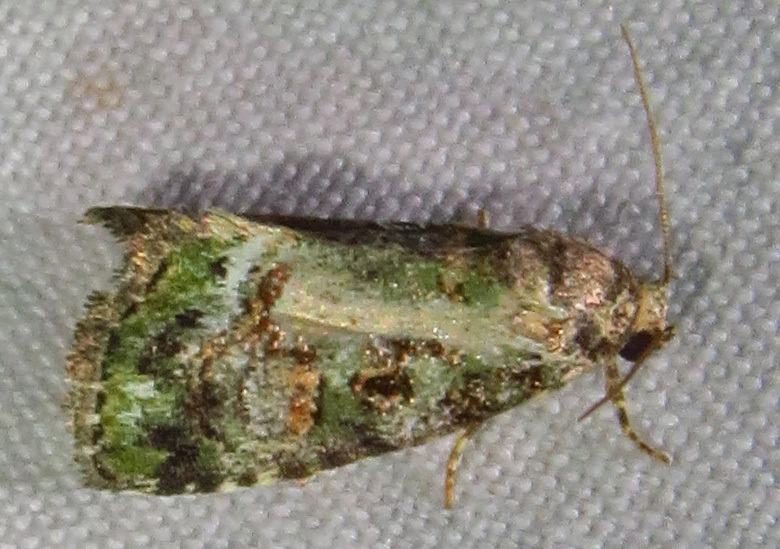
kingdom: Animalia
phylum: Arthropoda
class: Insecta
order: Lepidoptera
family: Noctuidae
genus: Lithacodia
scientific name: Lithacodia musta
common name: Small mossy glyph
